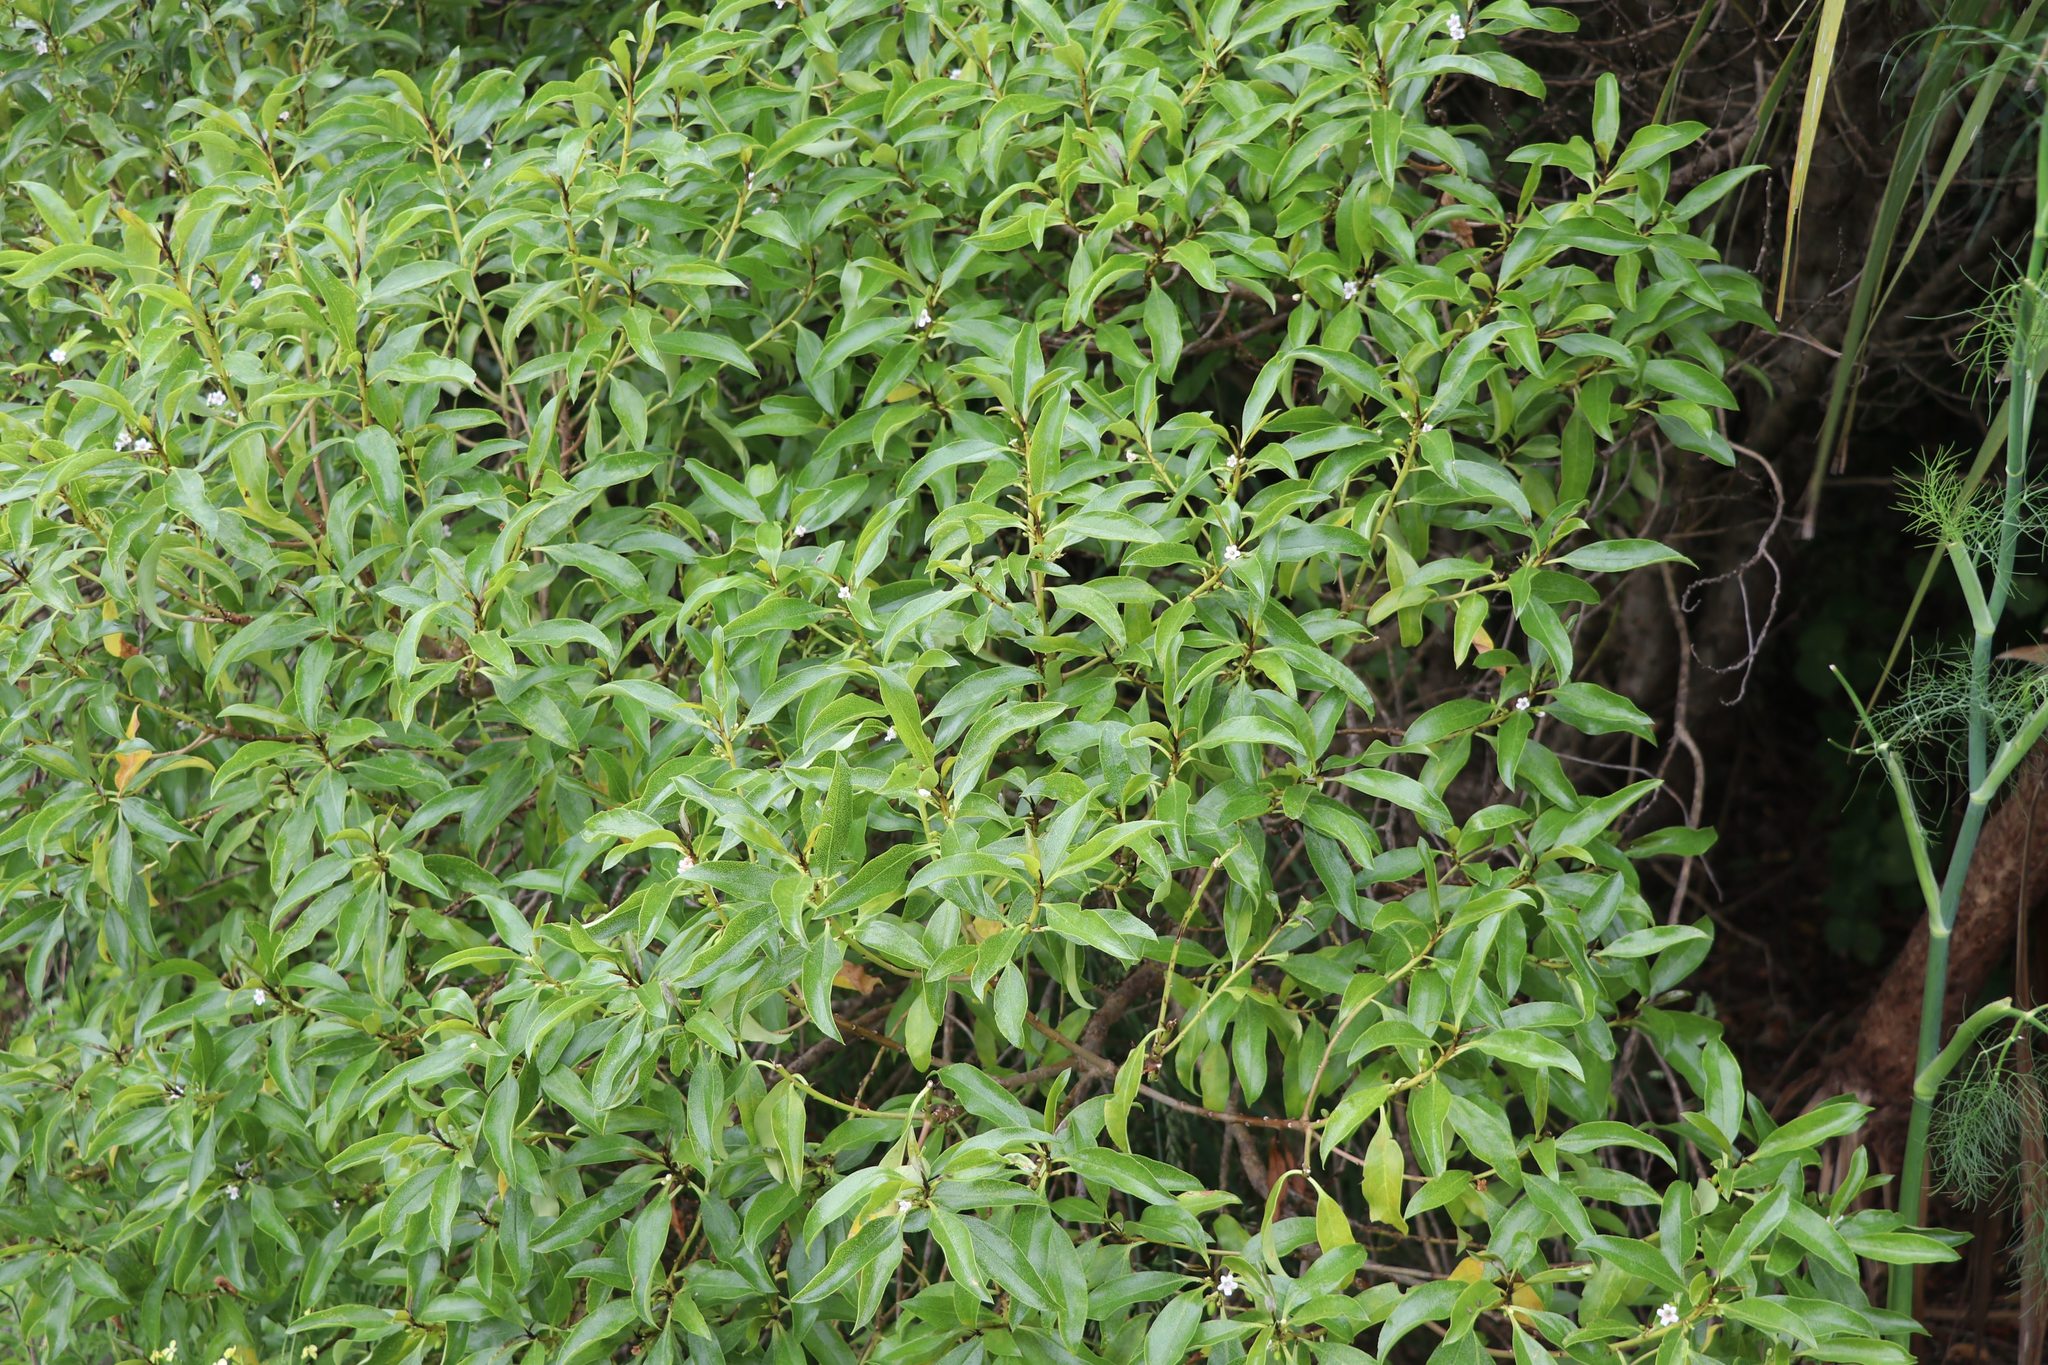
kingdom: Plantae
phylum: Tracheophyta
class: Magnoliopsida
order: Lamiales
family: Scrophulariaceae
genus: Myoporum
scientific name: Myoporum laetum
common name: Ngaio tree
